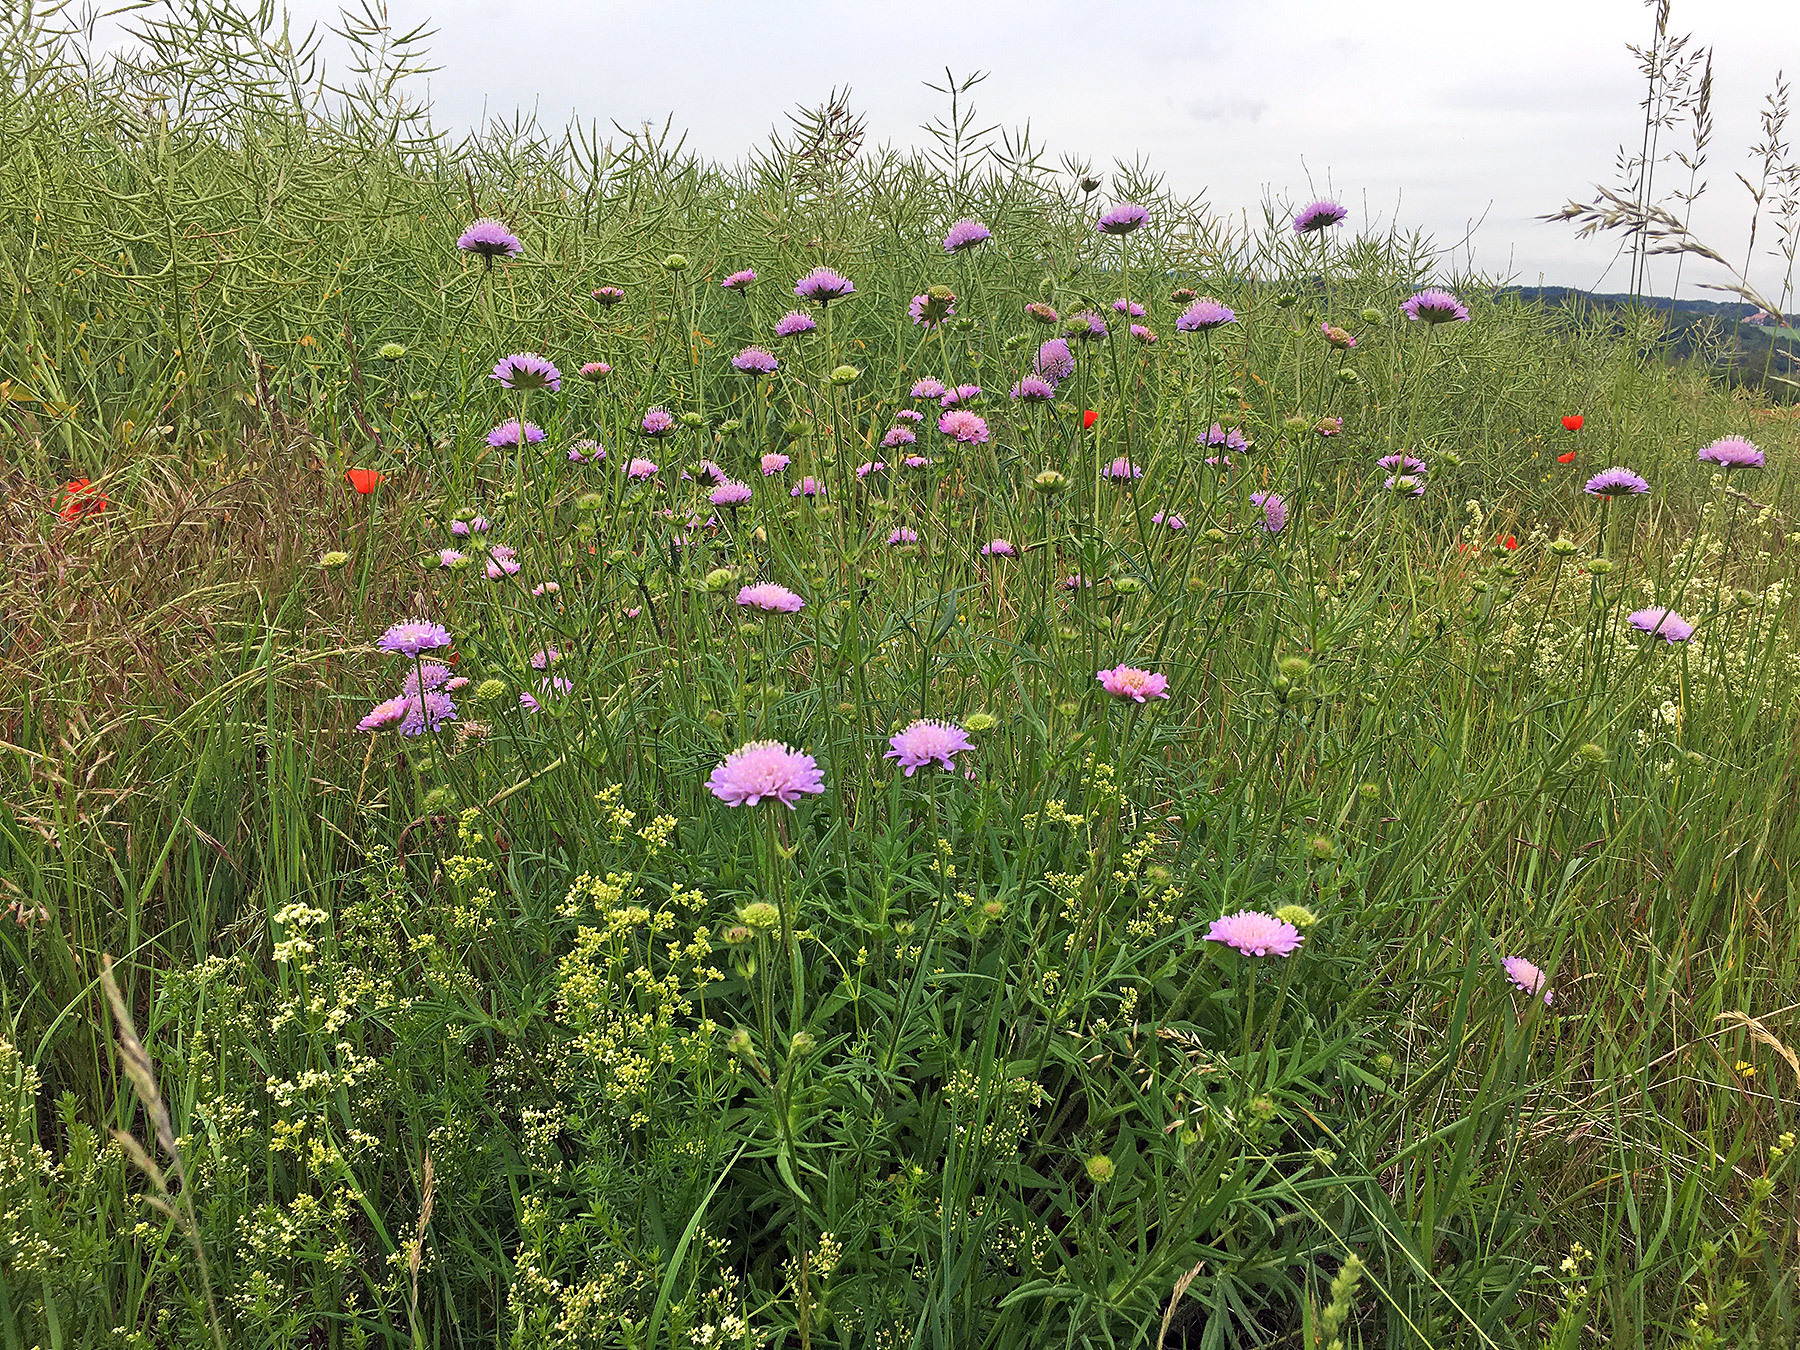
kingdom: Plantae
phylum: Tracheophyta
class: Magnoliopsida
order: Dipsacales
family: Caprifoliaceae
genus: Knautia
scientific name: Knautia arvensis
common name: Field scabiosa
